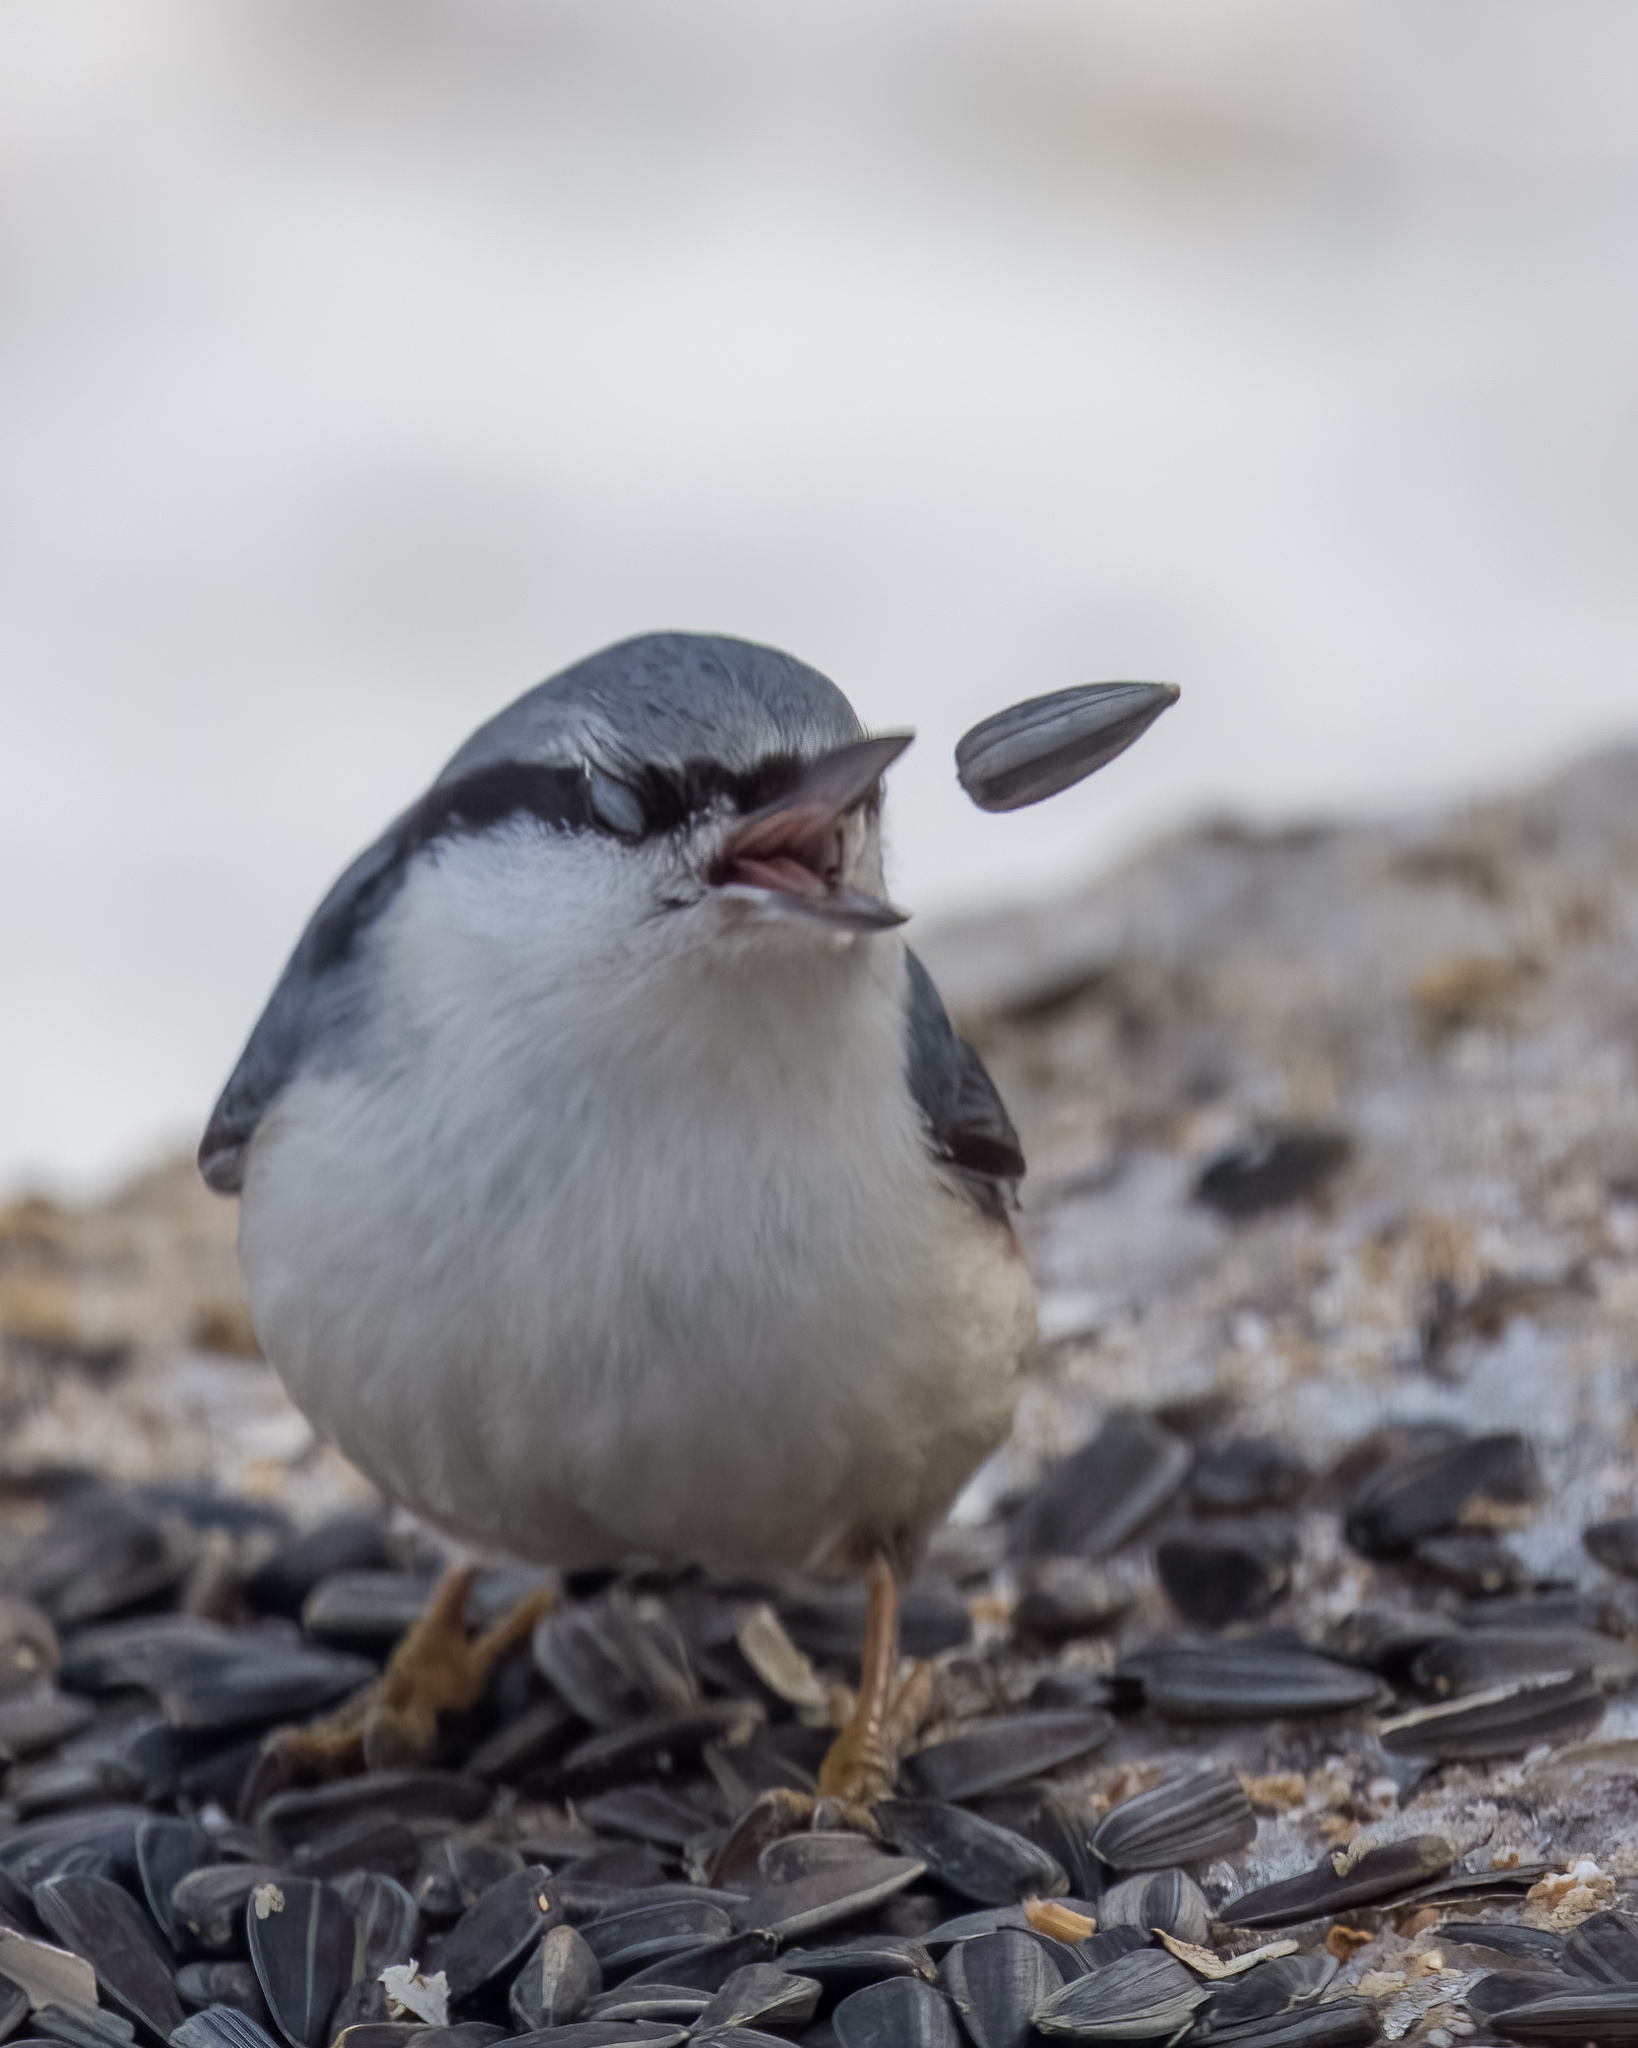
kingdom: Animalia
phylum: Chordata
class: Aves
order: Passeriformes
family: Sittidae
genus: Sitta
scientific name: Sitta europaea
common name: Eurasian nuthatch
